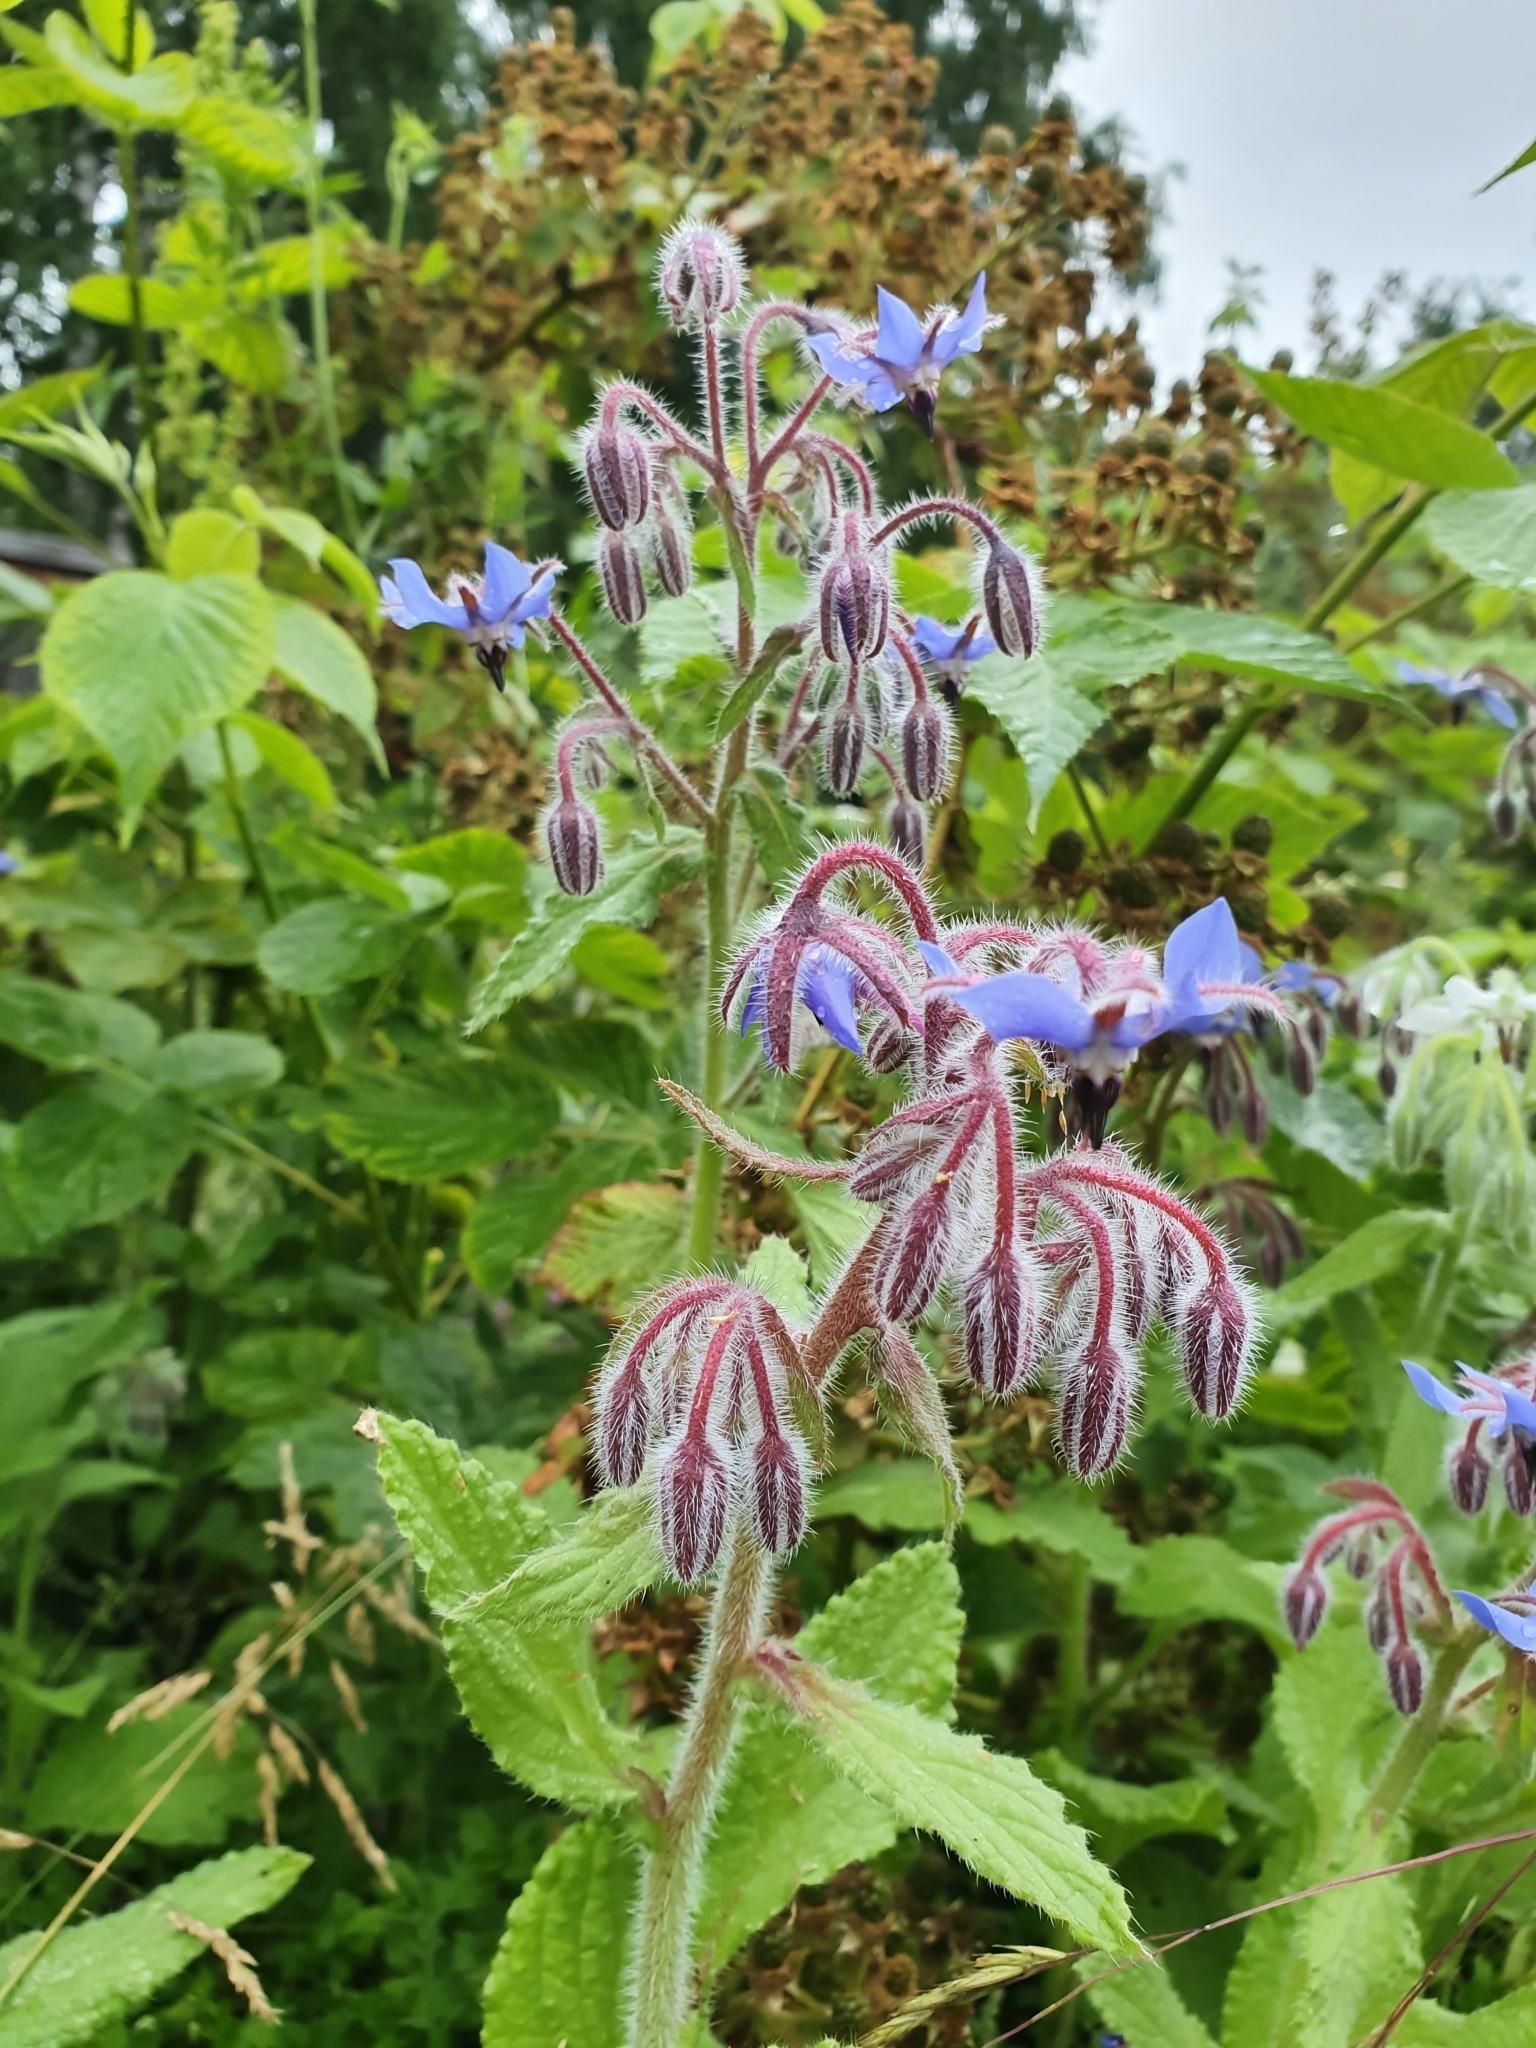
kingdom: Plantae
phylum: Tracheophyta
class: Magnoliopsida
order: Boraginales
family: Boraginaceae
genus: Borago
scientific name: Borago officinalis
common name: Borage
